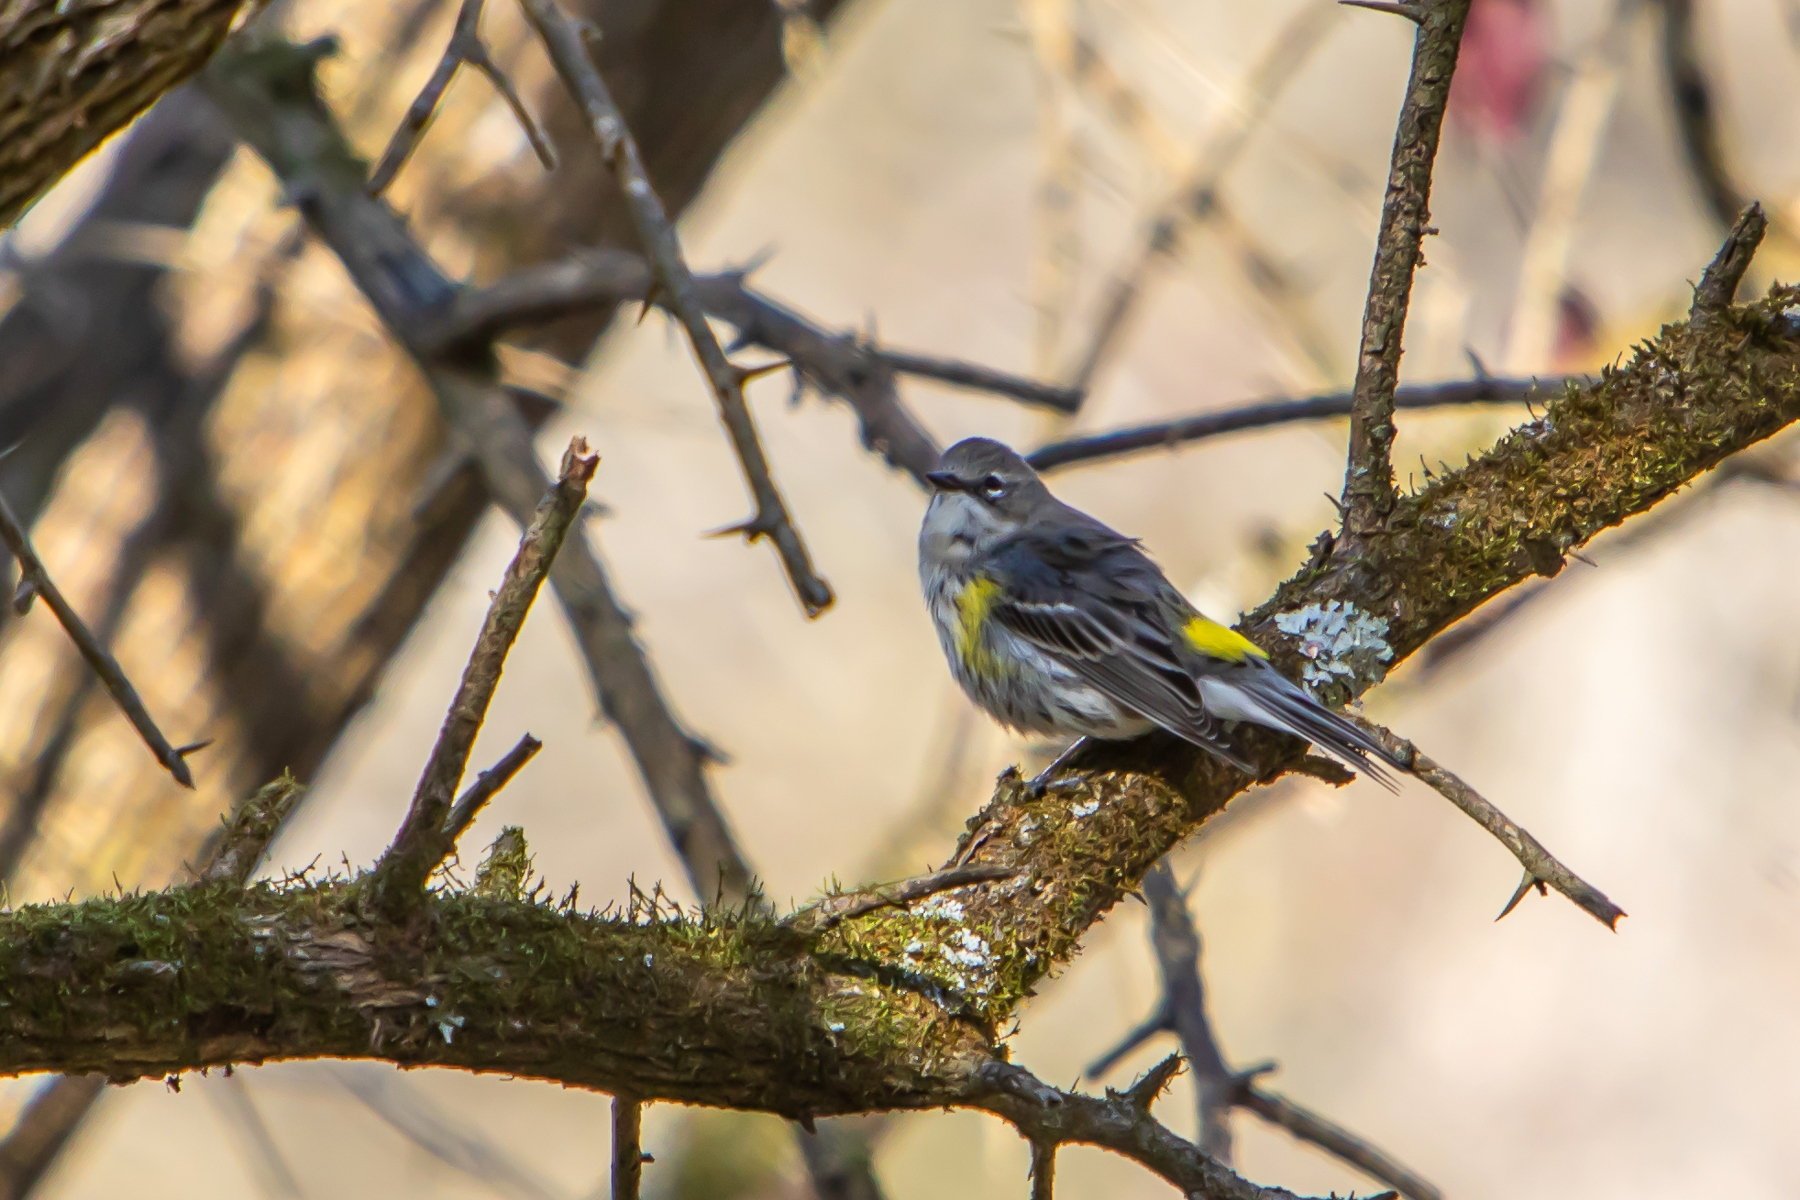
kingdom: Animalia
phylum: Chordata
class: Aves
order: Passeriformes
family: Parulidae
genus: Setophaga
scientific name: Setophaga coronata
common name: Myrtle warbler
